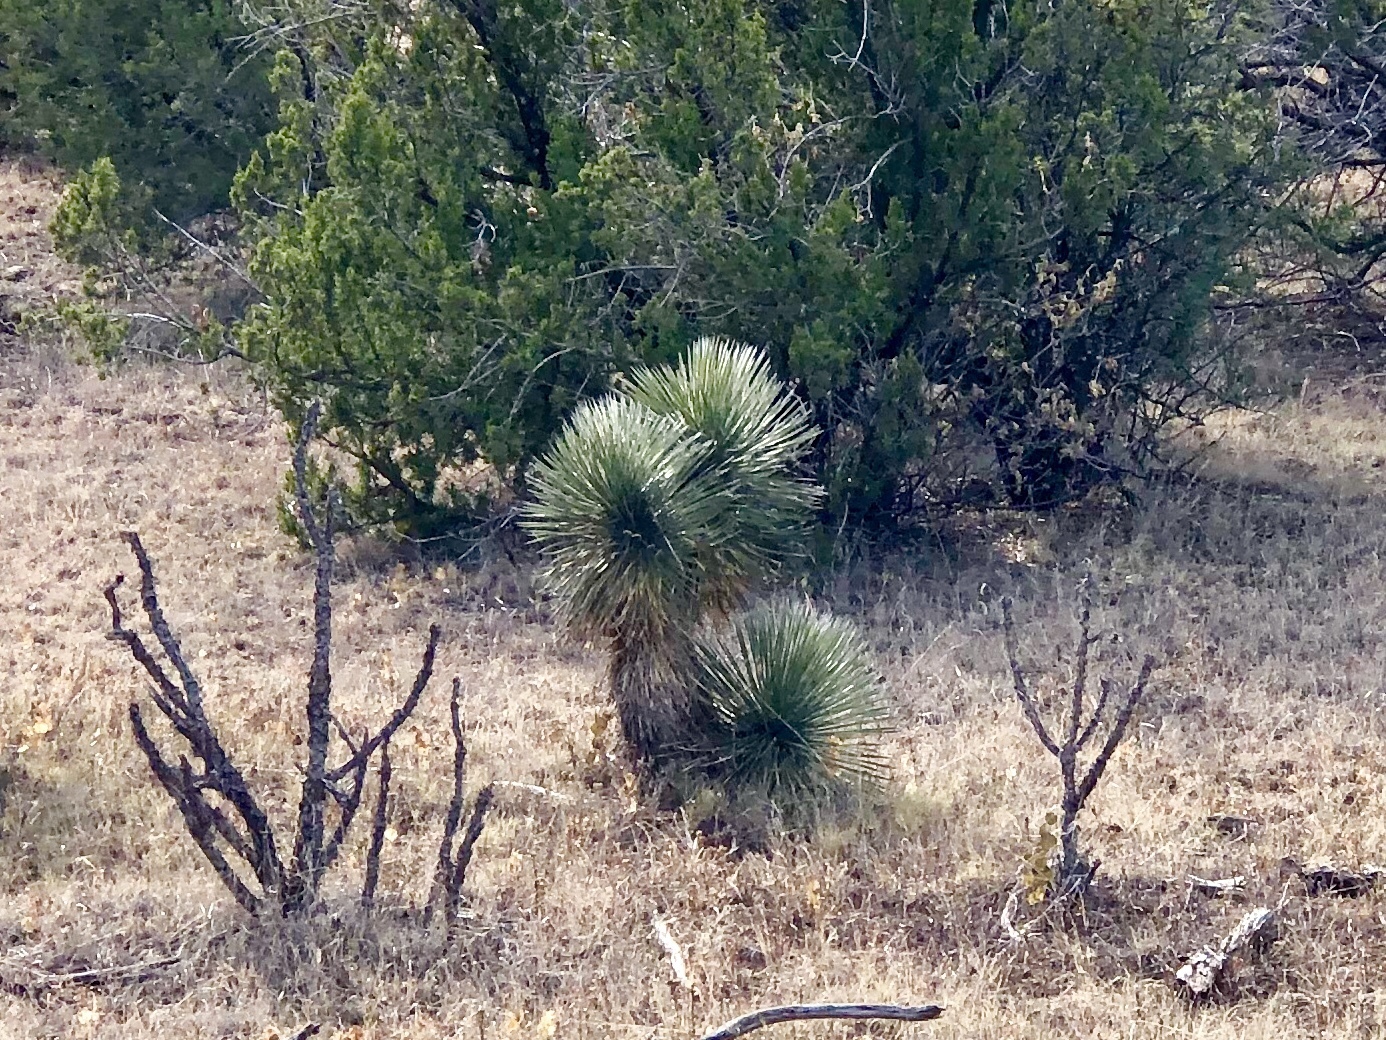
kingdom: Plantae
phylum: Tracheophyta
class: Liliopsida
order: Asparagales
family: Asparagaceae
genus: Yucca
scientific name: Yucca elata
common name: Palmella
